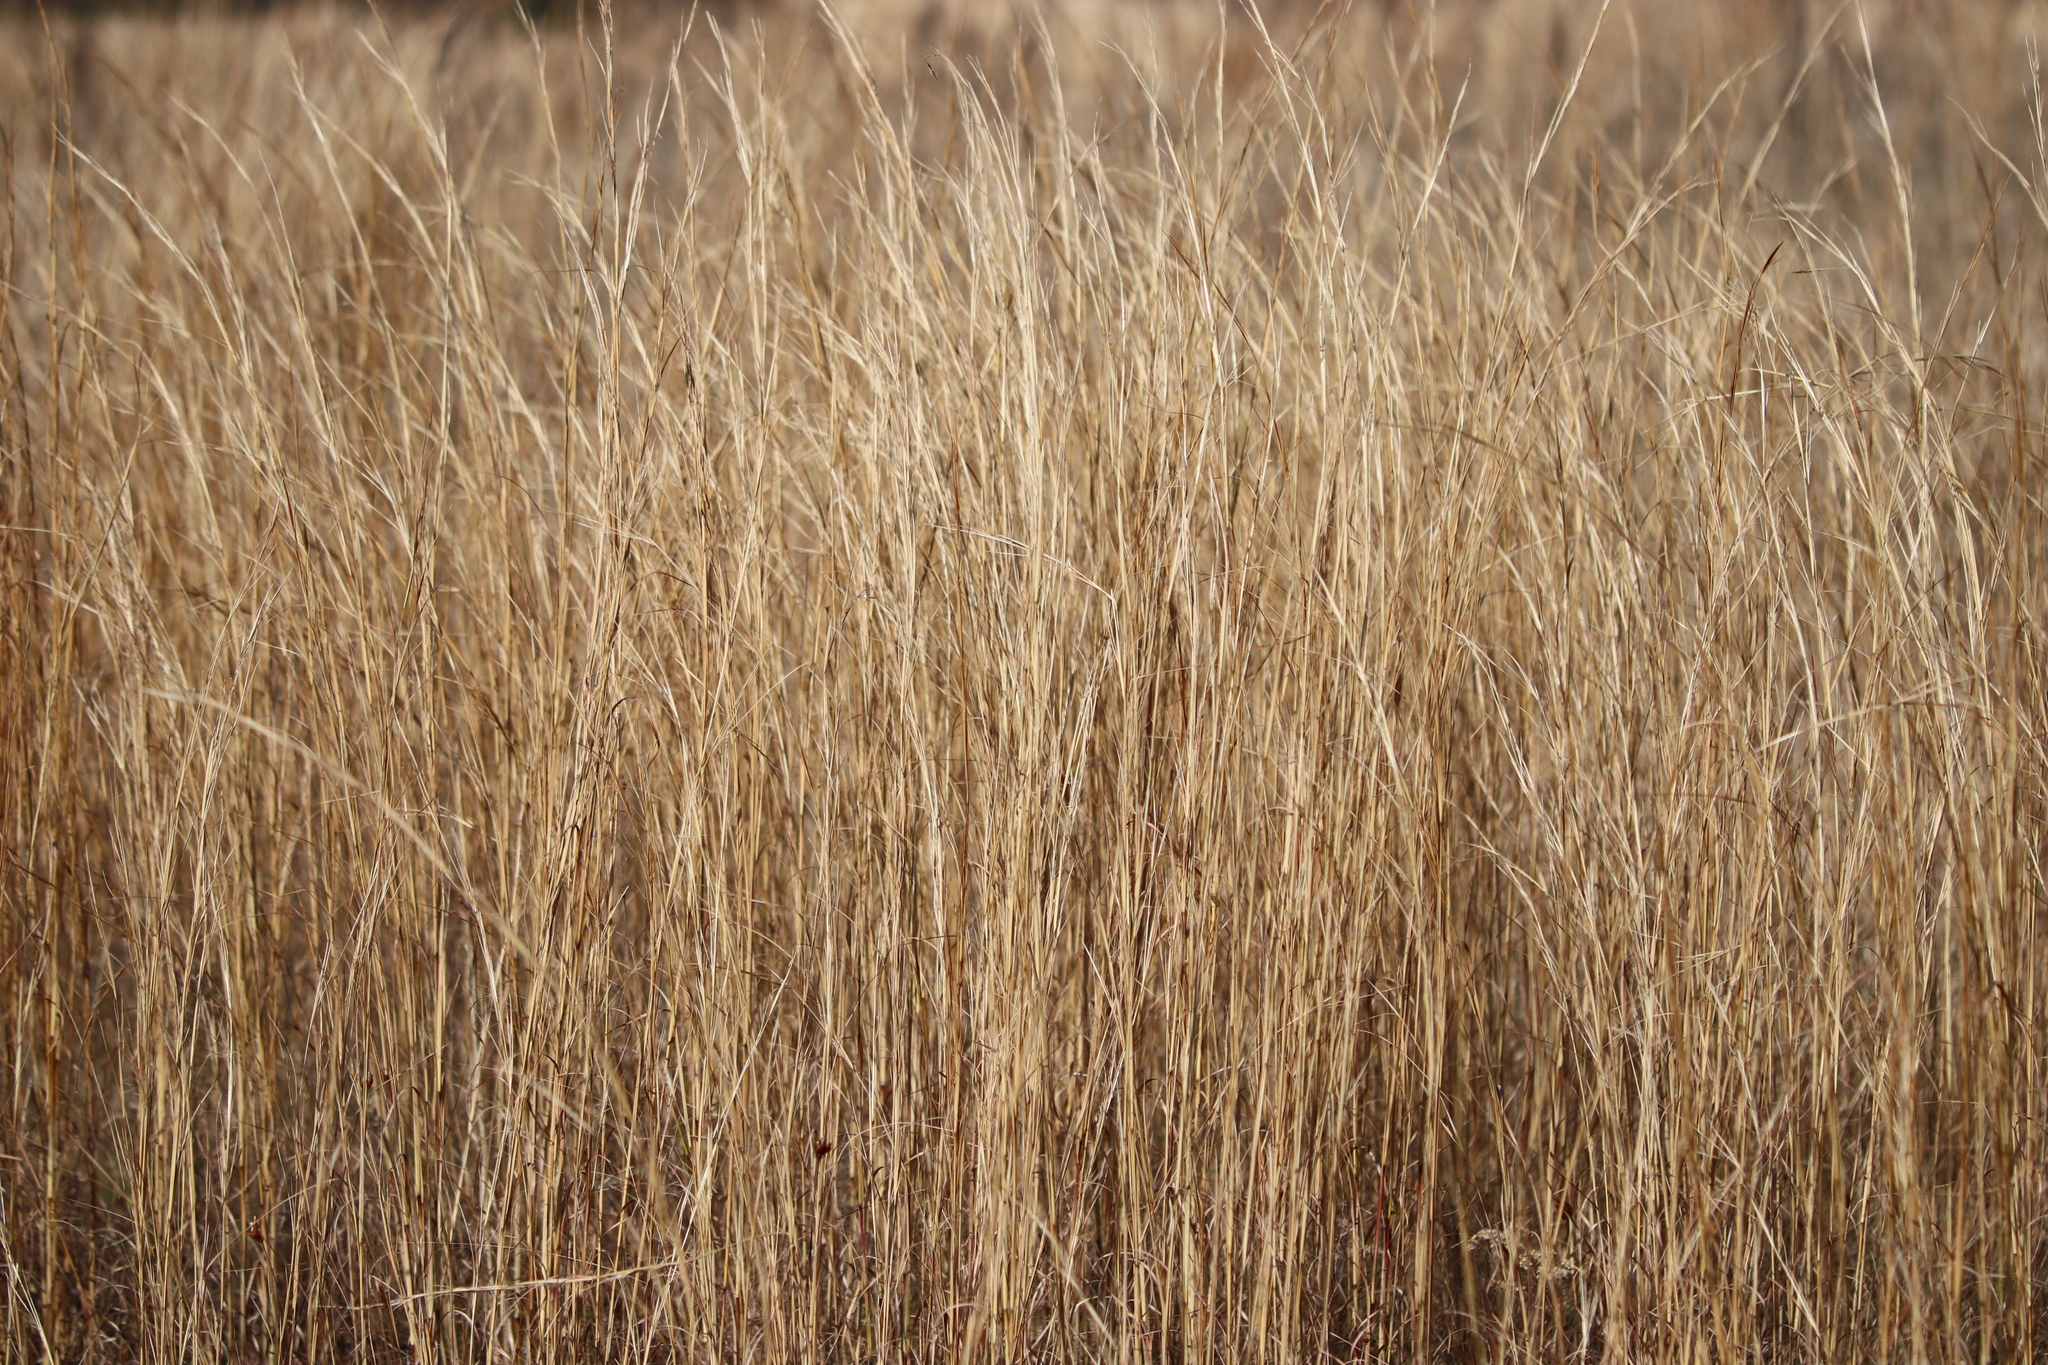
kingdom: Plantae
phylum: Tracheophyta
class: Liliopsida
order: Poales
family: Poaceae
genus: Schizachyrium
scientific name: Schizachyrium scoparium
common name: Little bluestem
